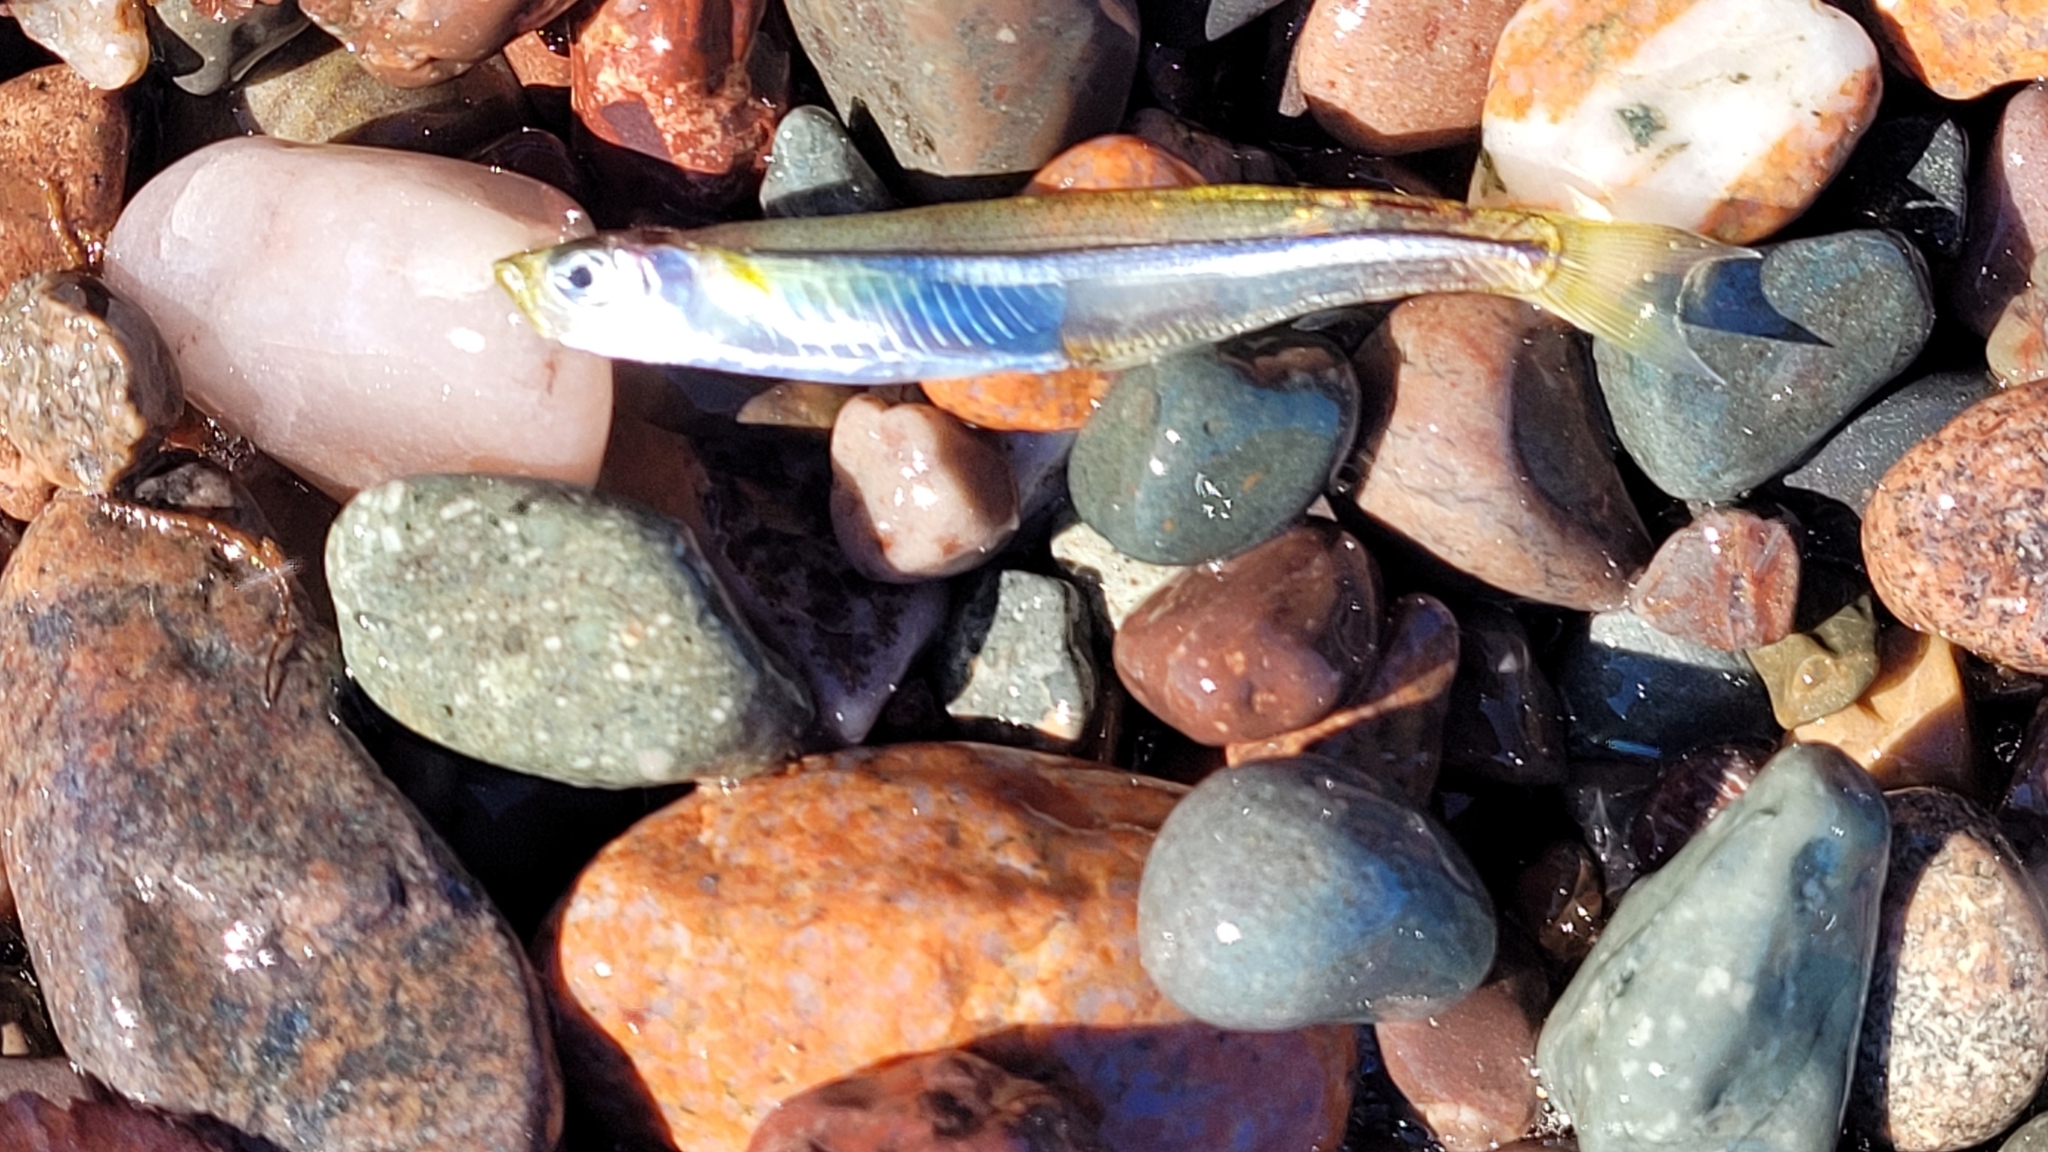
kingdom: Animalia
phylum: Chordata
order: Atheriniformes
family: Atherinopsidae
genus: Menidia
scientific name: Menidia menidia
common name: Atlantic silverside
